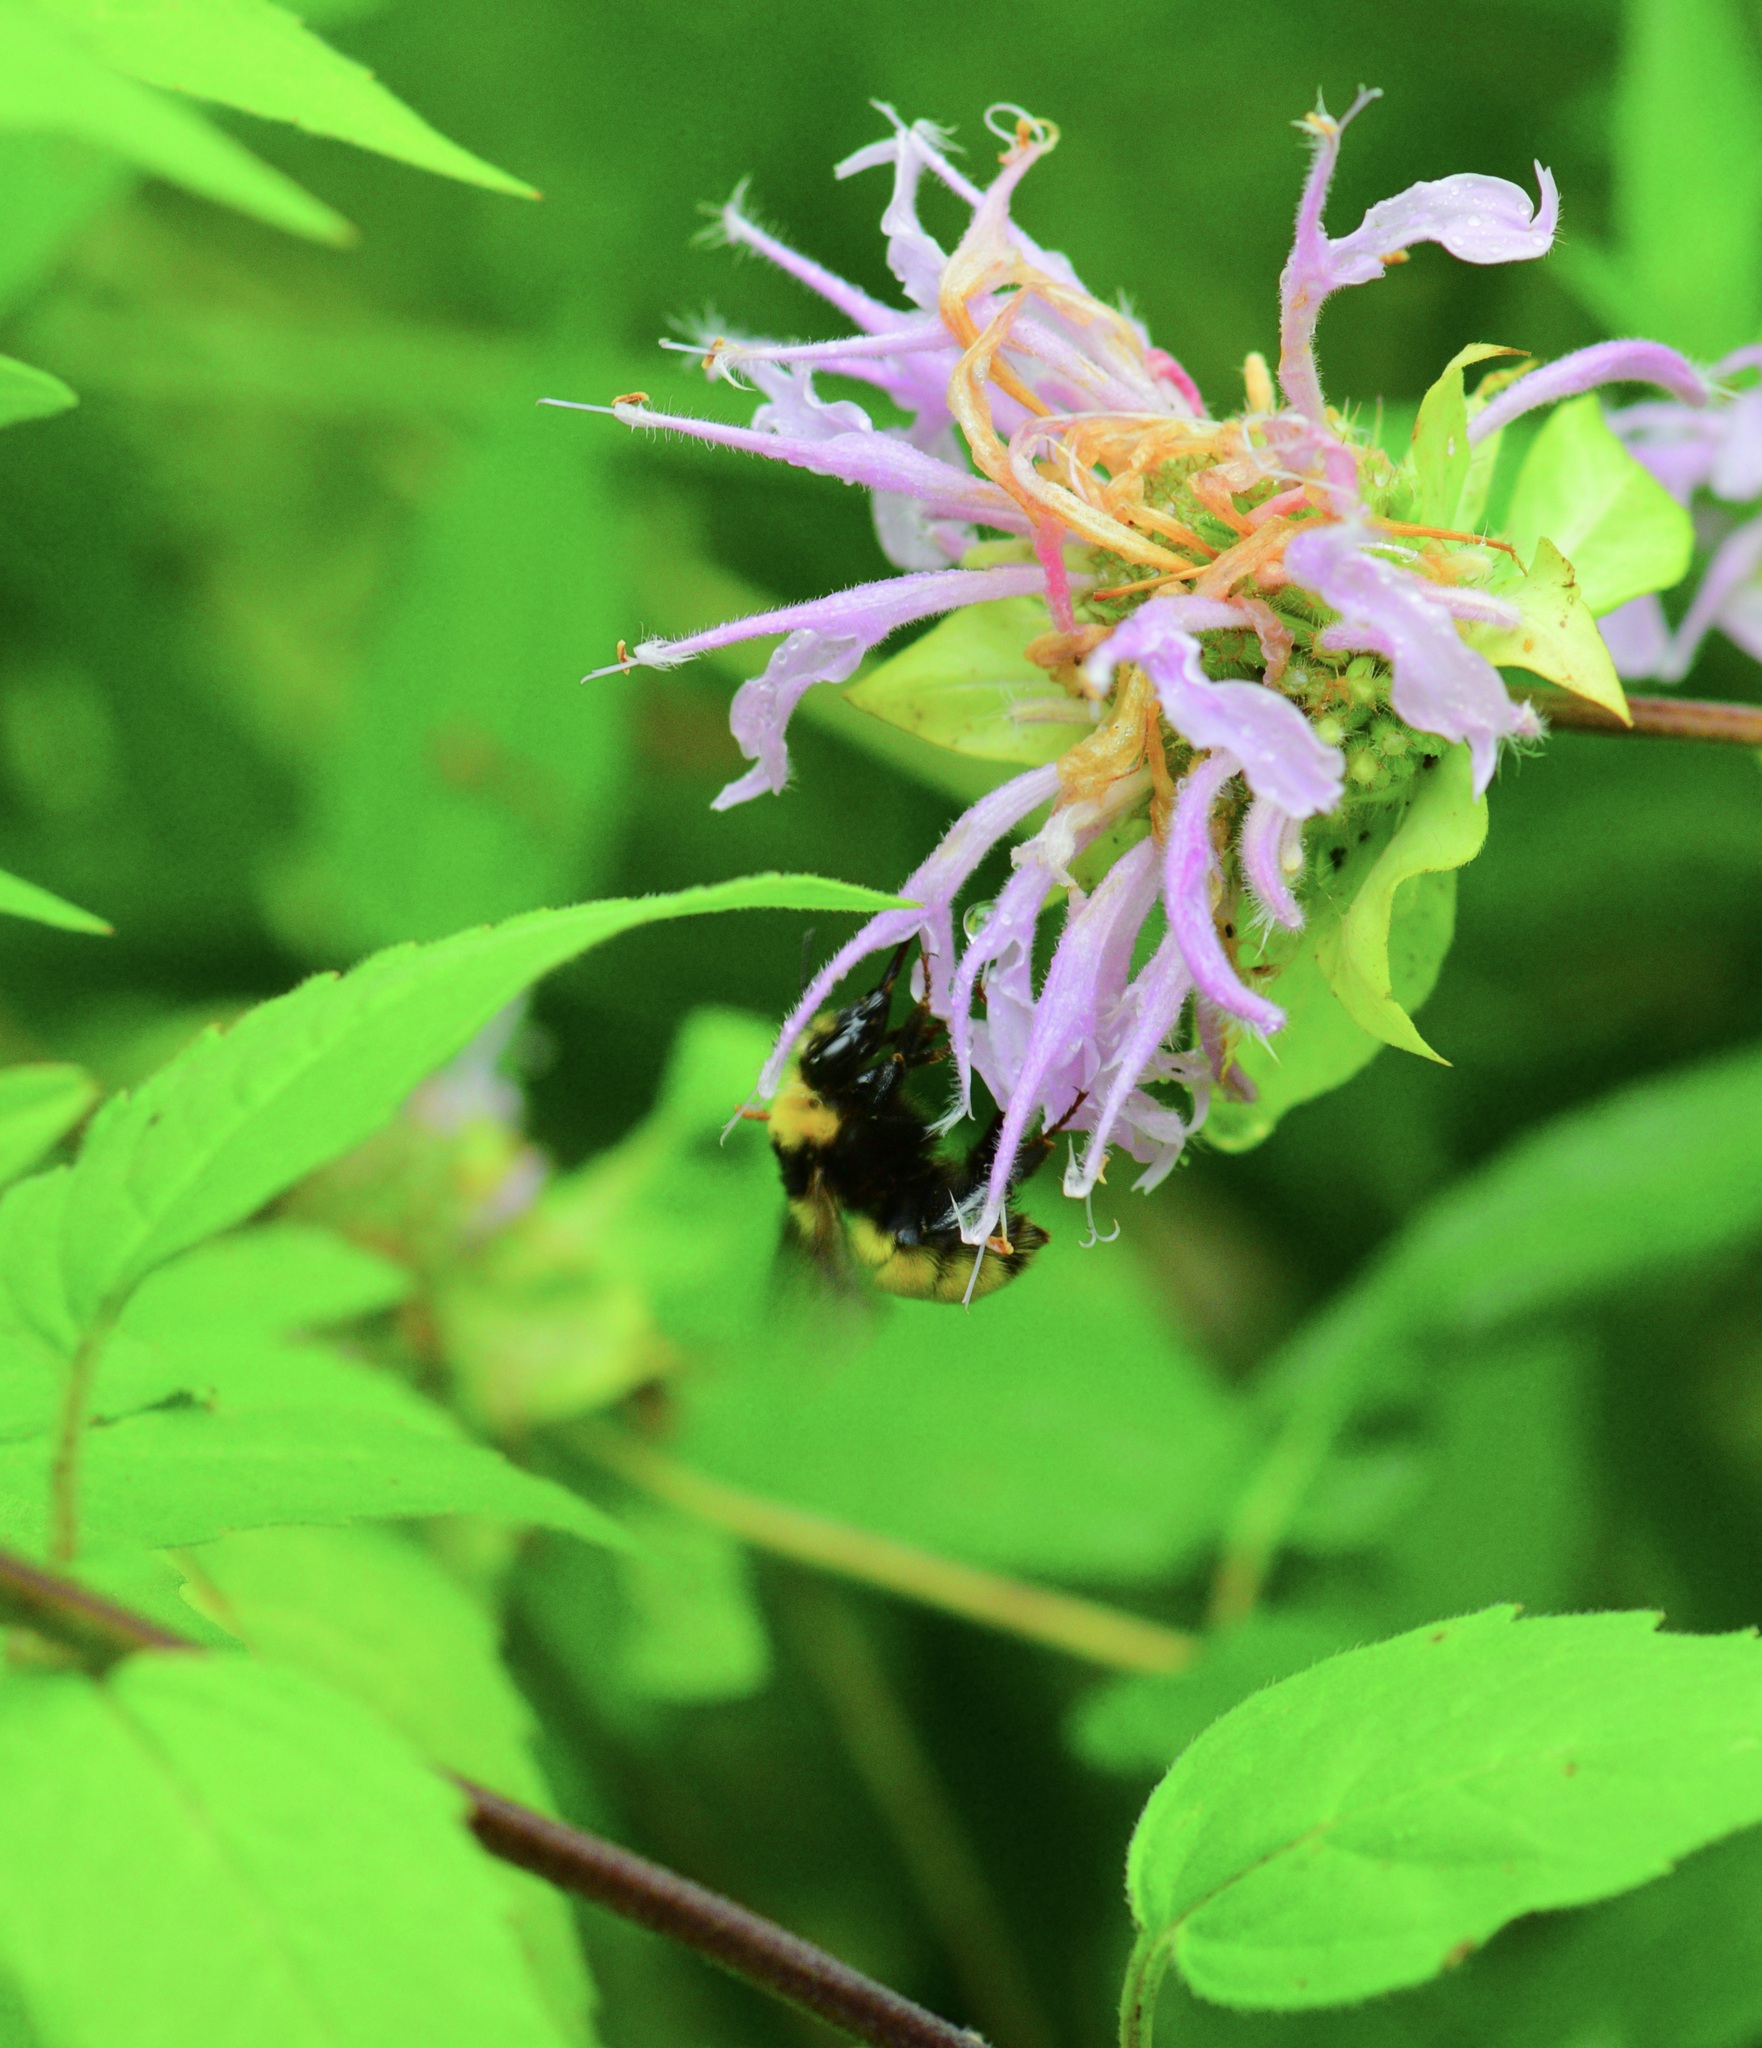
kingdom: Animalia
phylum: Arthropoda
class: Insecta
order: Hymenoptera
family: Apidae
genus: Bombus
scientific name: Bombus borealis
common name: Northern amber bumble bee
